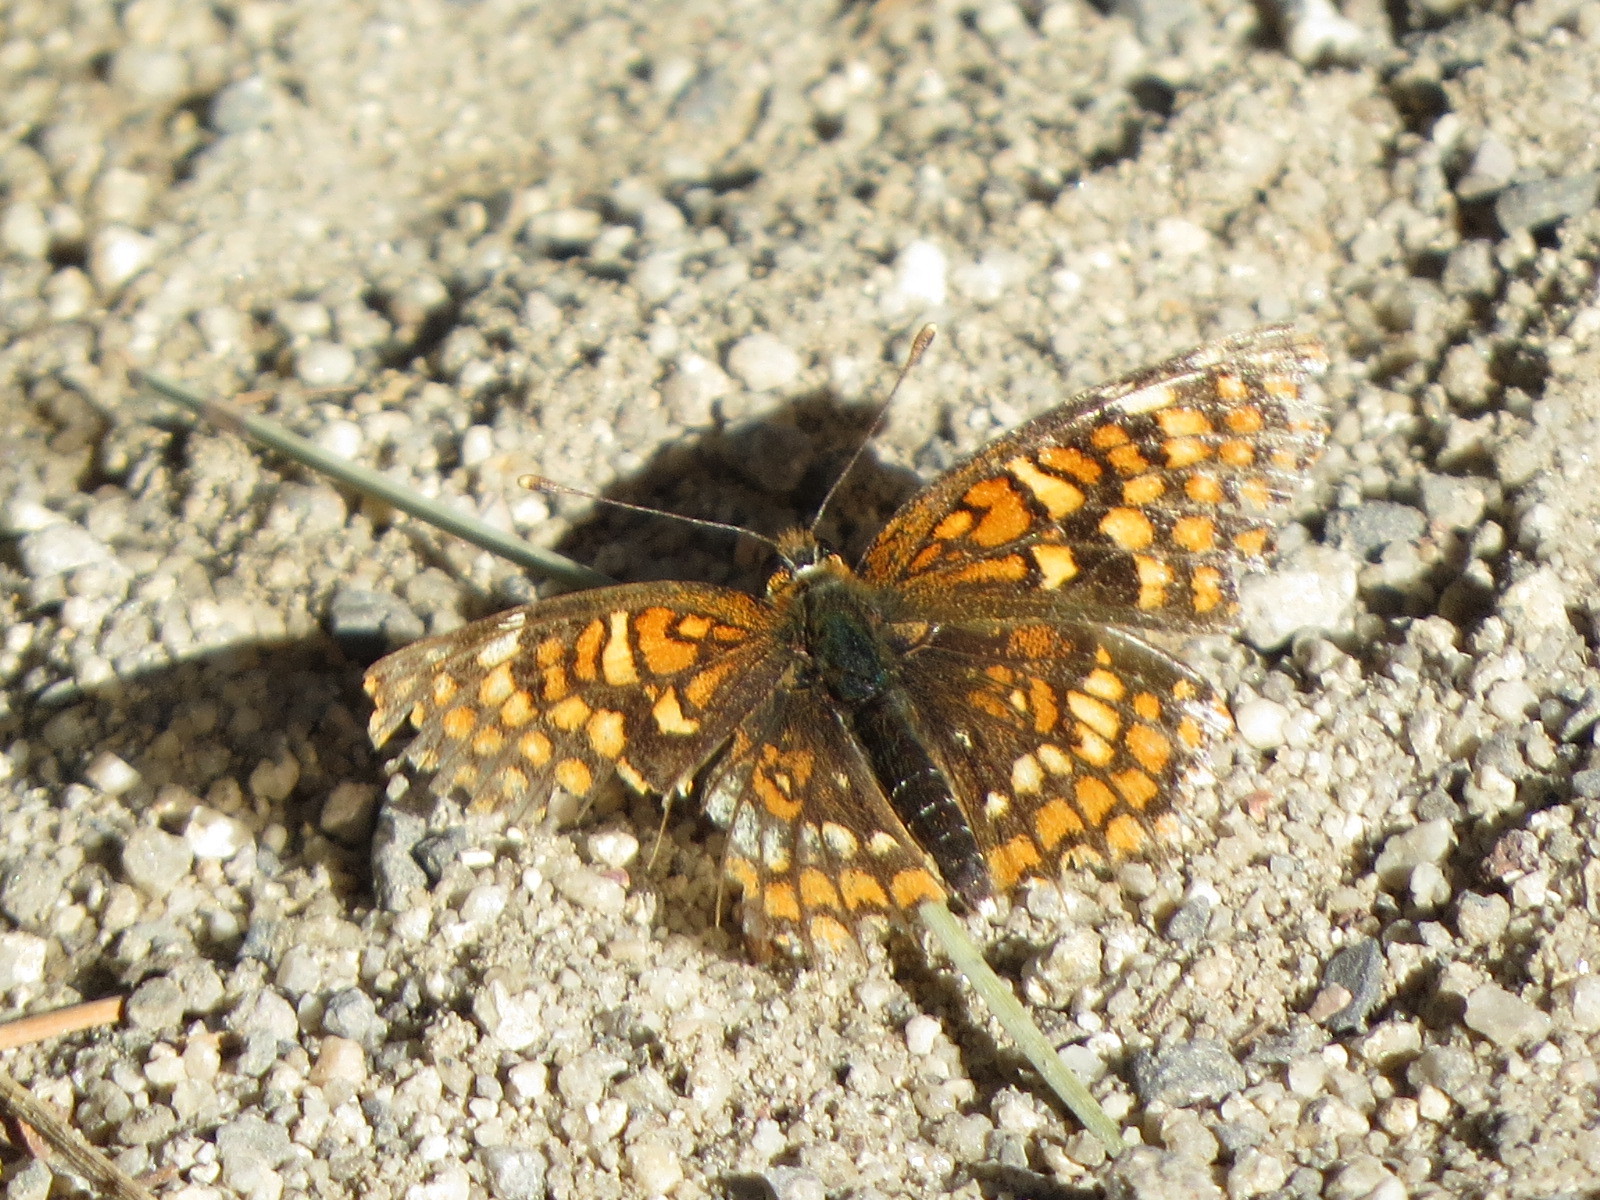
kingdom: Animalia
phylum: Arthropoda
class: Insecta
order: Lepidoptera
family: Nymphalidae
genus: Chlosyne
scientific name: Chlosyne palla
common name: Northern checkerspot
